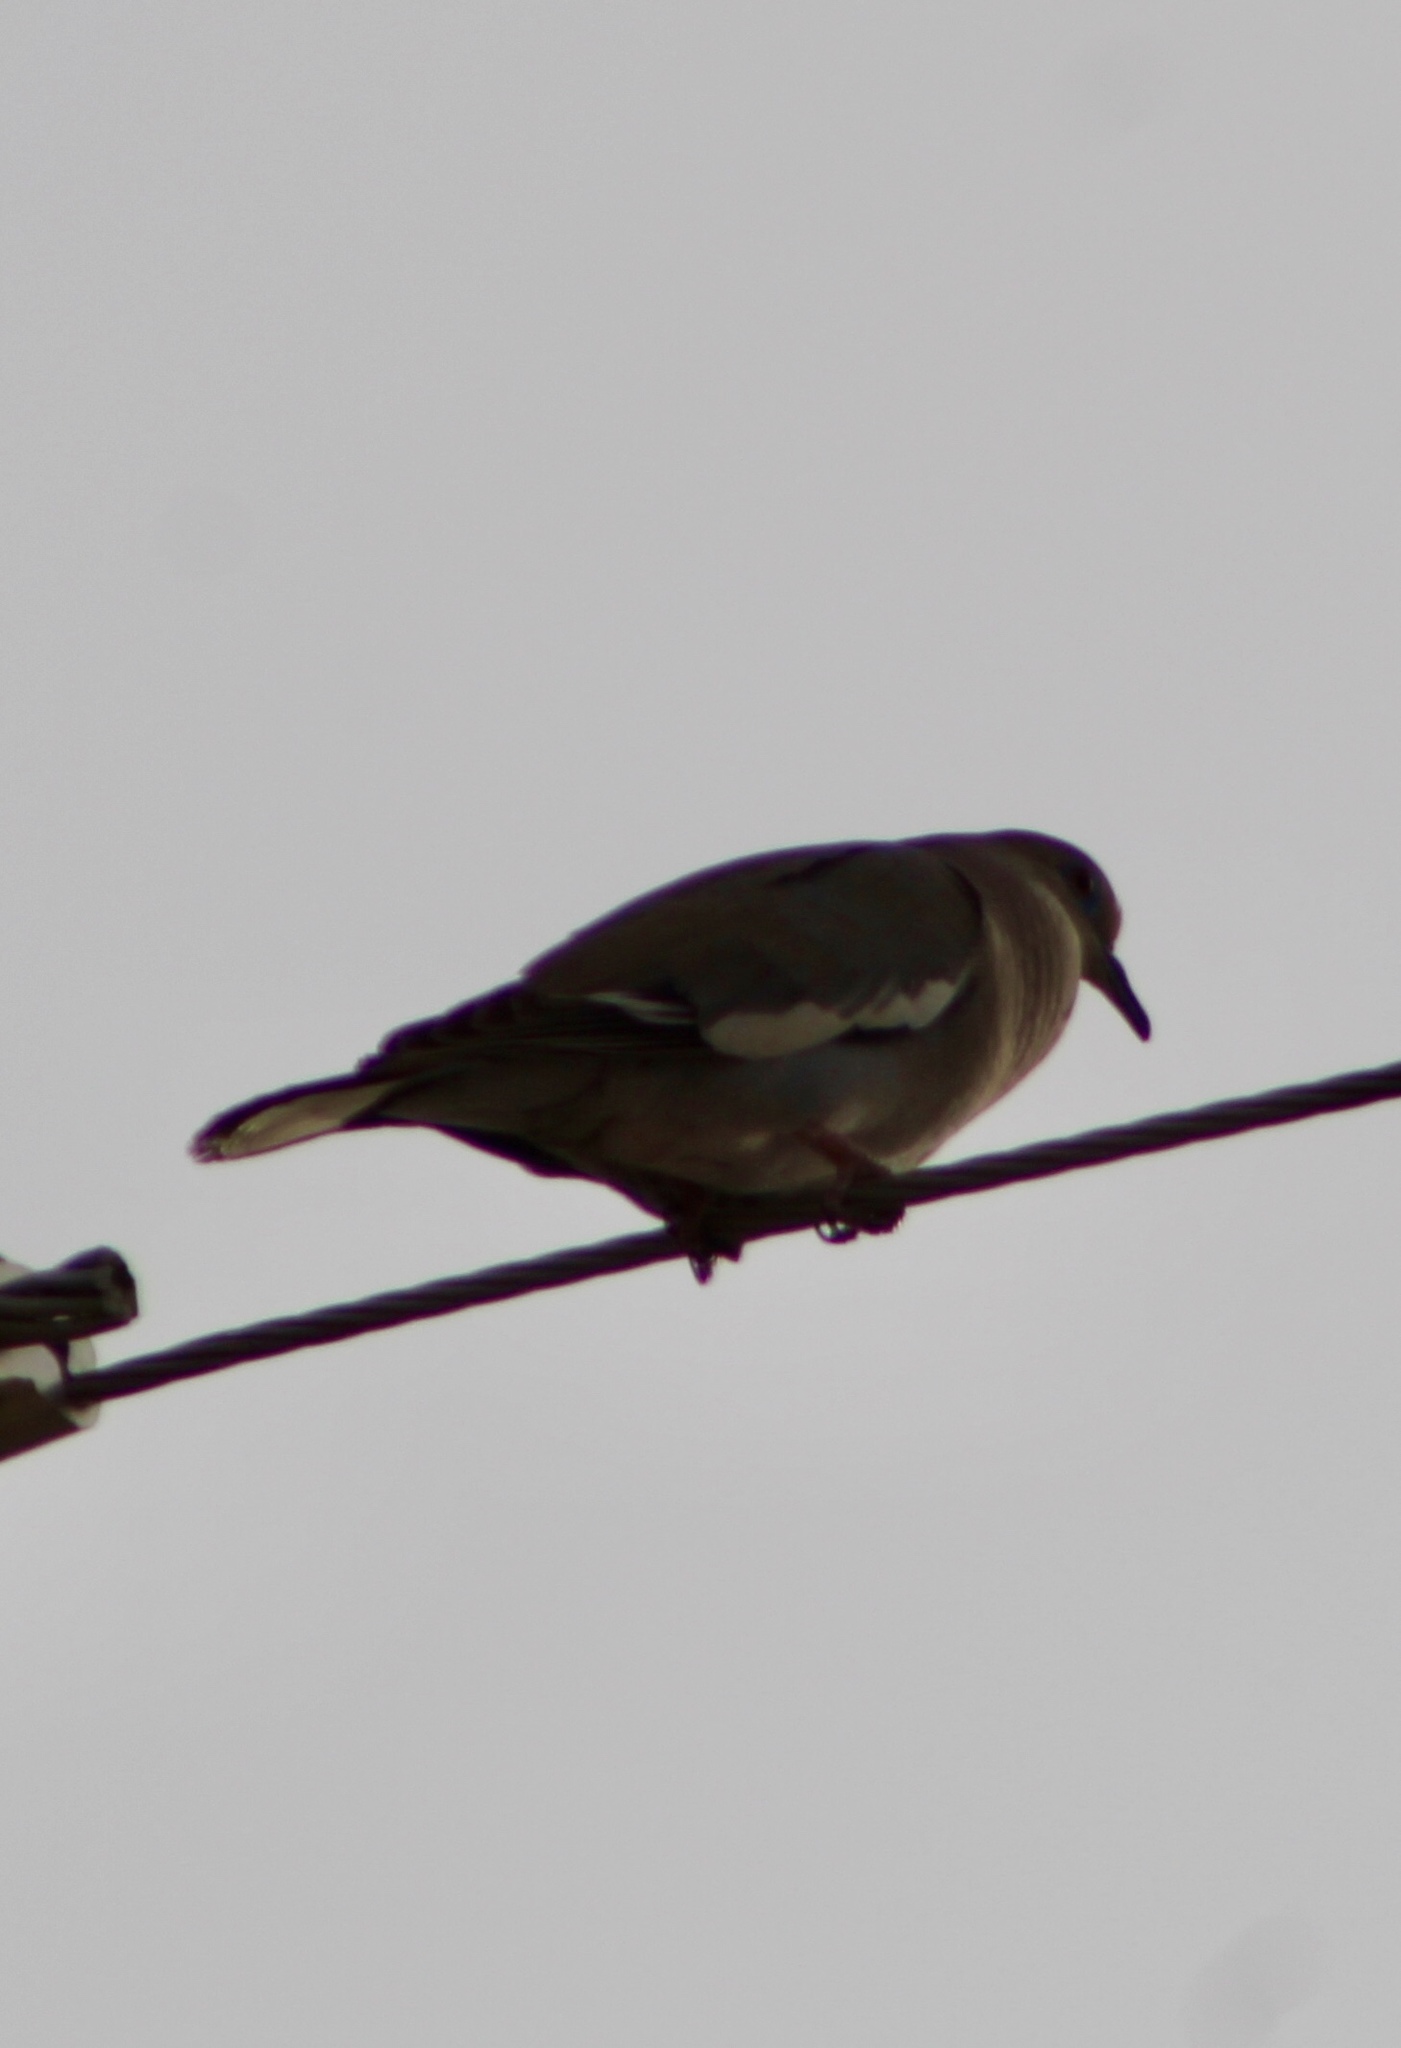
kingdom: Animalia
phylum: Chordata
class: Aves
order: Columbiformes
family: Columbidae
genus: Zenaida
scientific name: Zenaida asiatica
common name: White-winged dove
